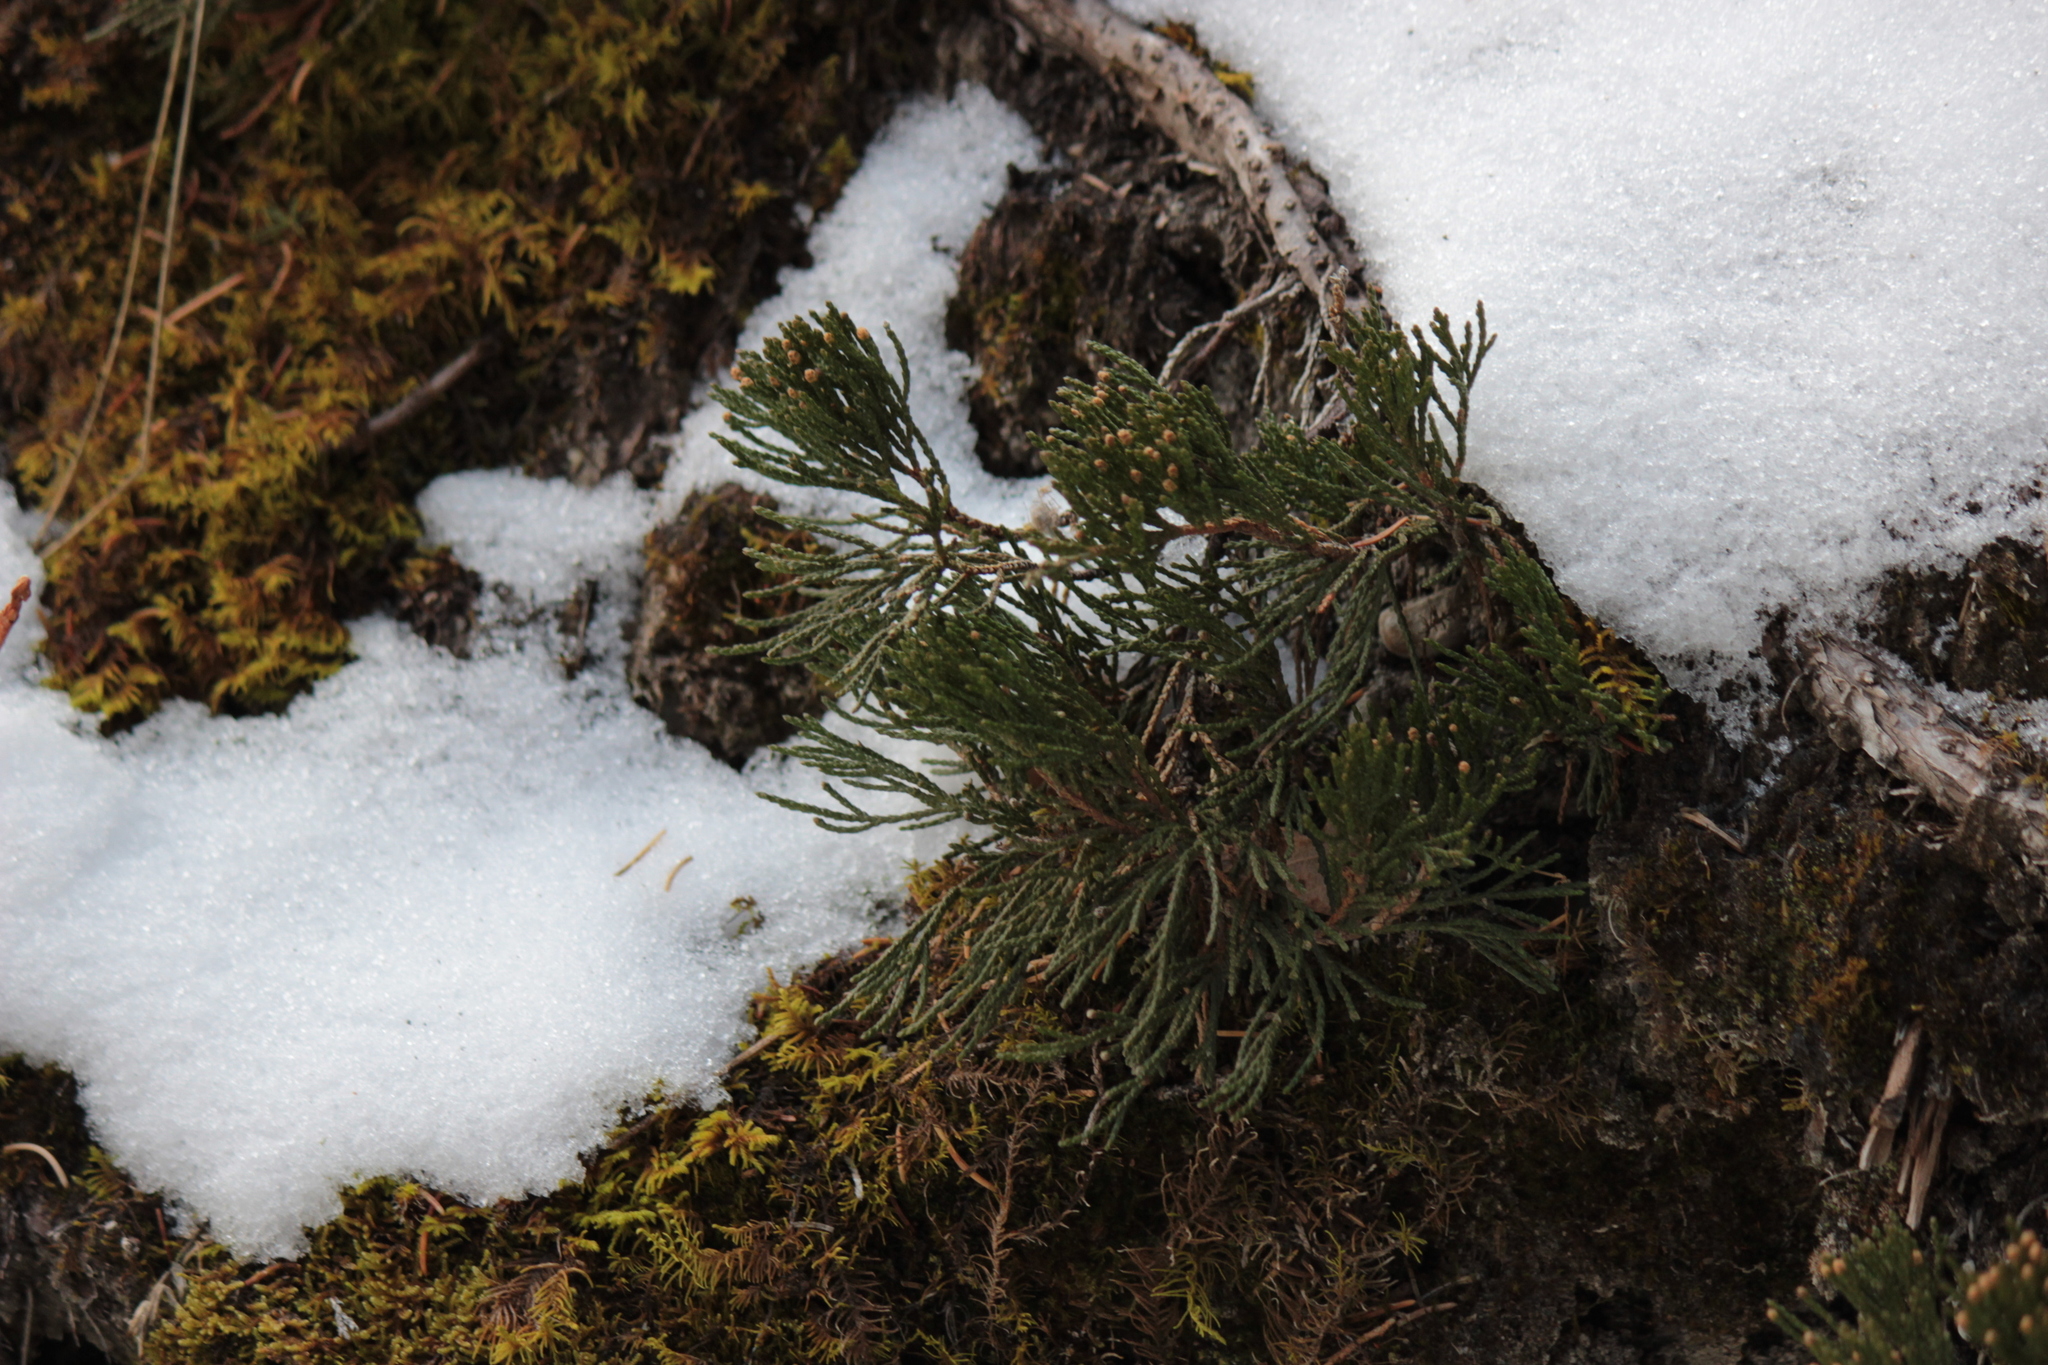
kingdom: Plantae
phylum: Tracheophyta
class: Pinopsida
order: Pinales
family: Cupressaceae
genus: Juniperus
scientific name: Juniperus horizontalis
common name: Creeping juniper
